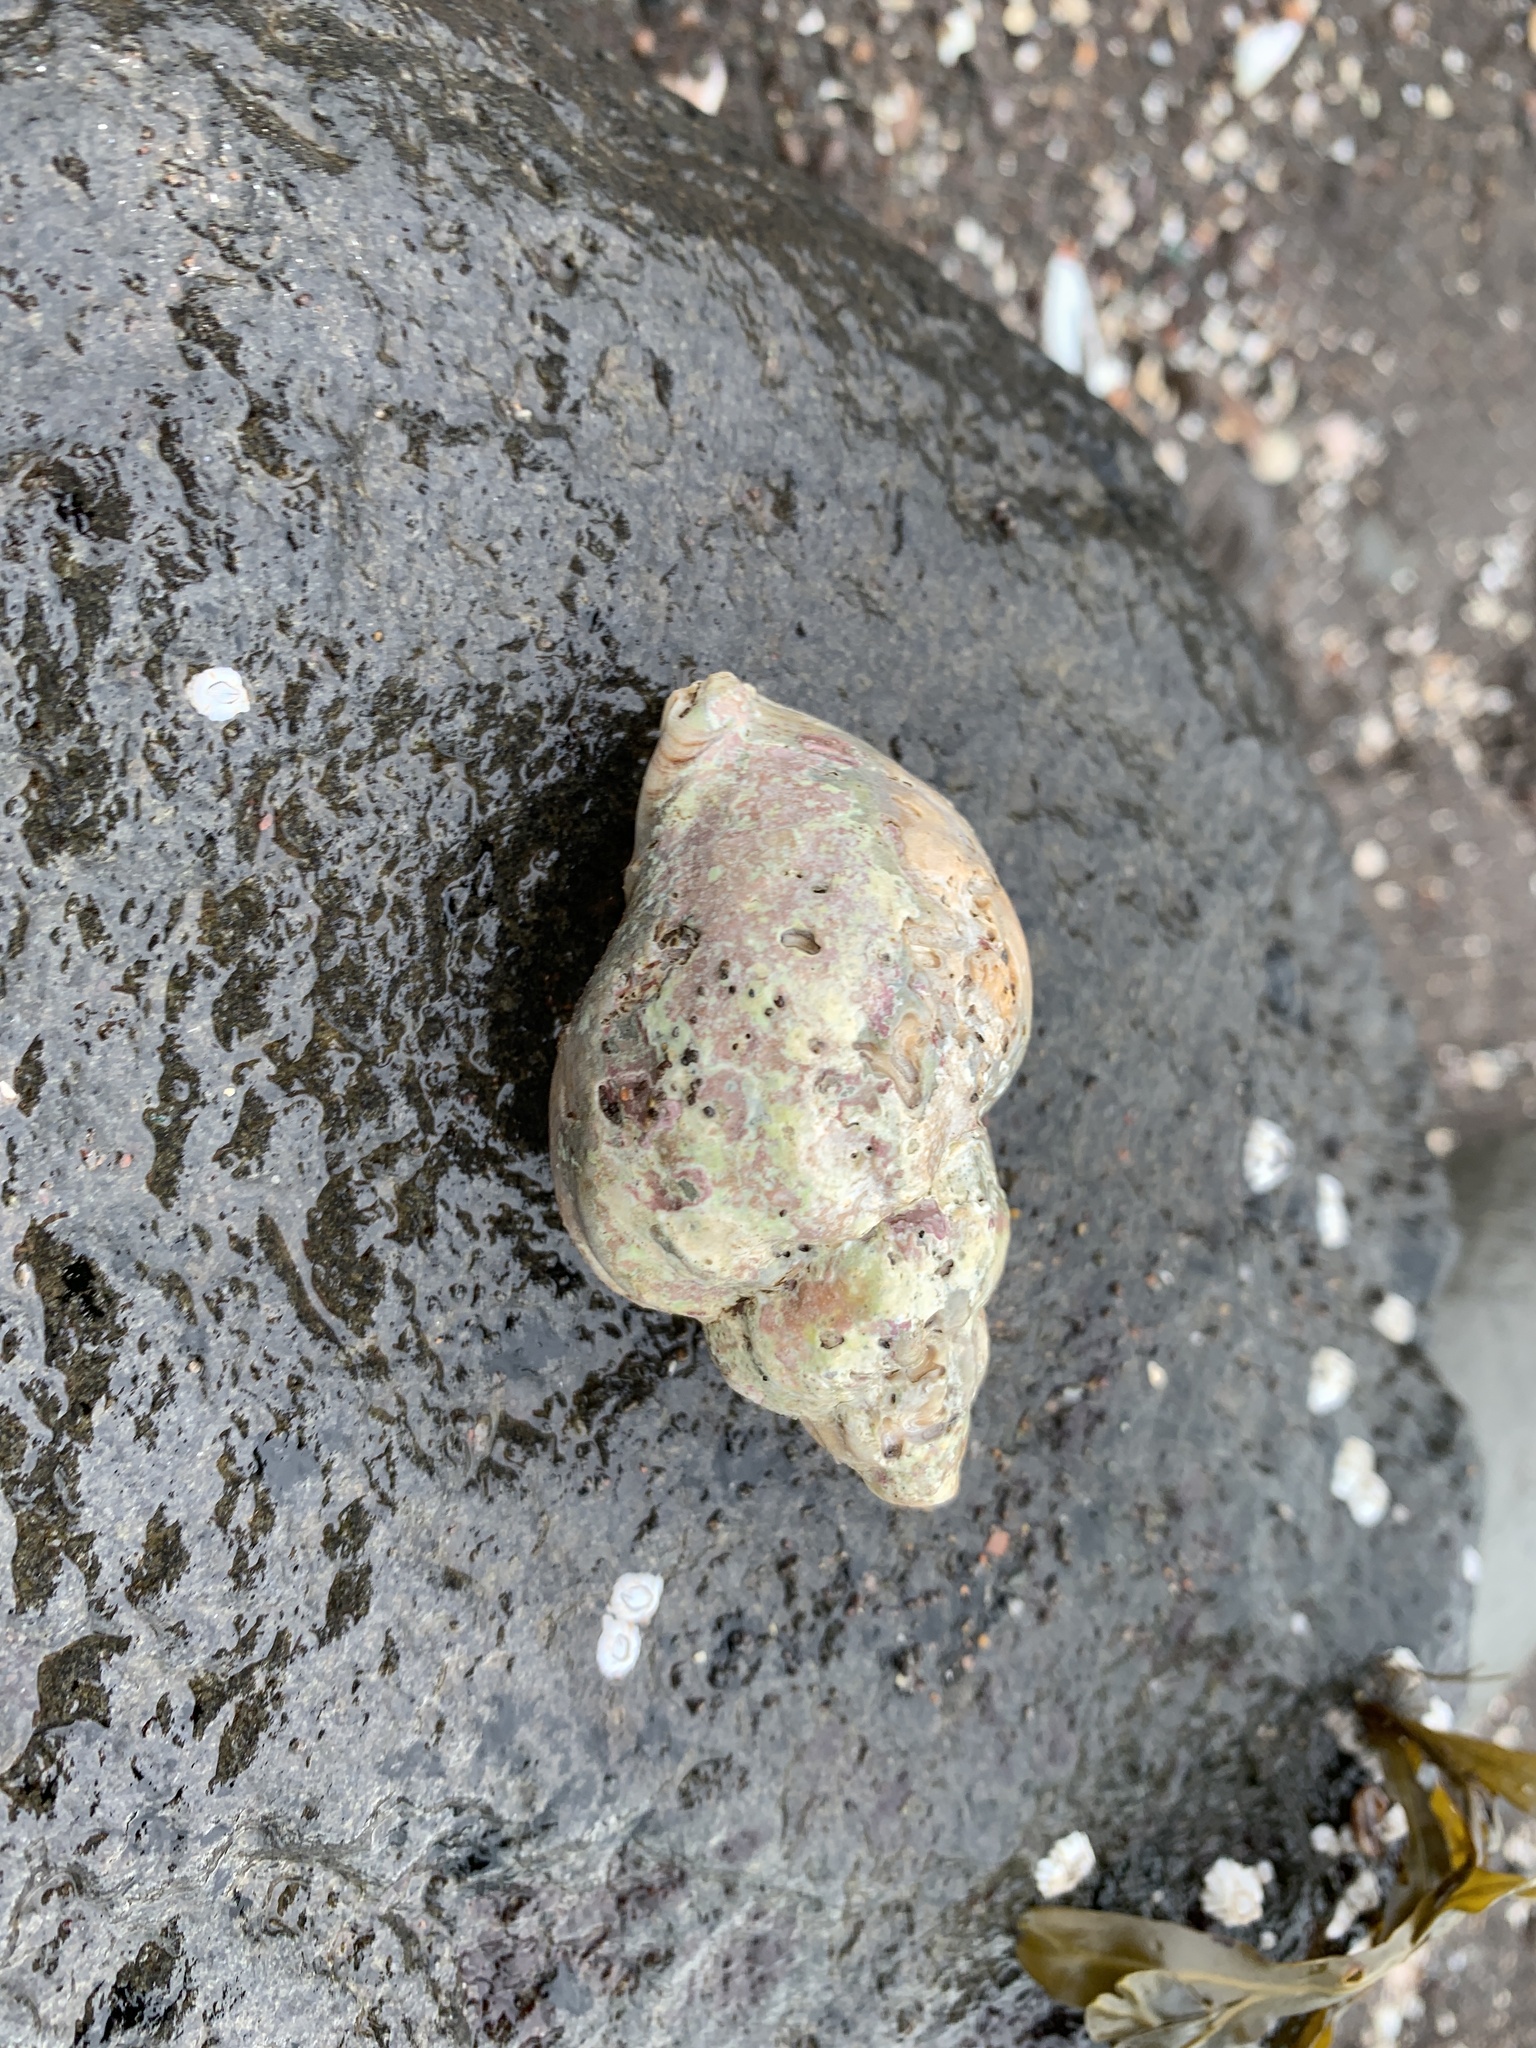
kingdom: Animalia
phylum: Mollusca
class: Gastropoda
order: Neogastropoda
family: Buccinidae
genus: Buccinum
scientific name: Buccinum undatum
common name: Common whelk
